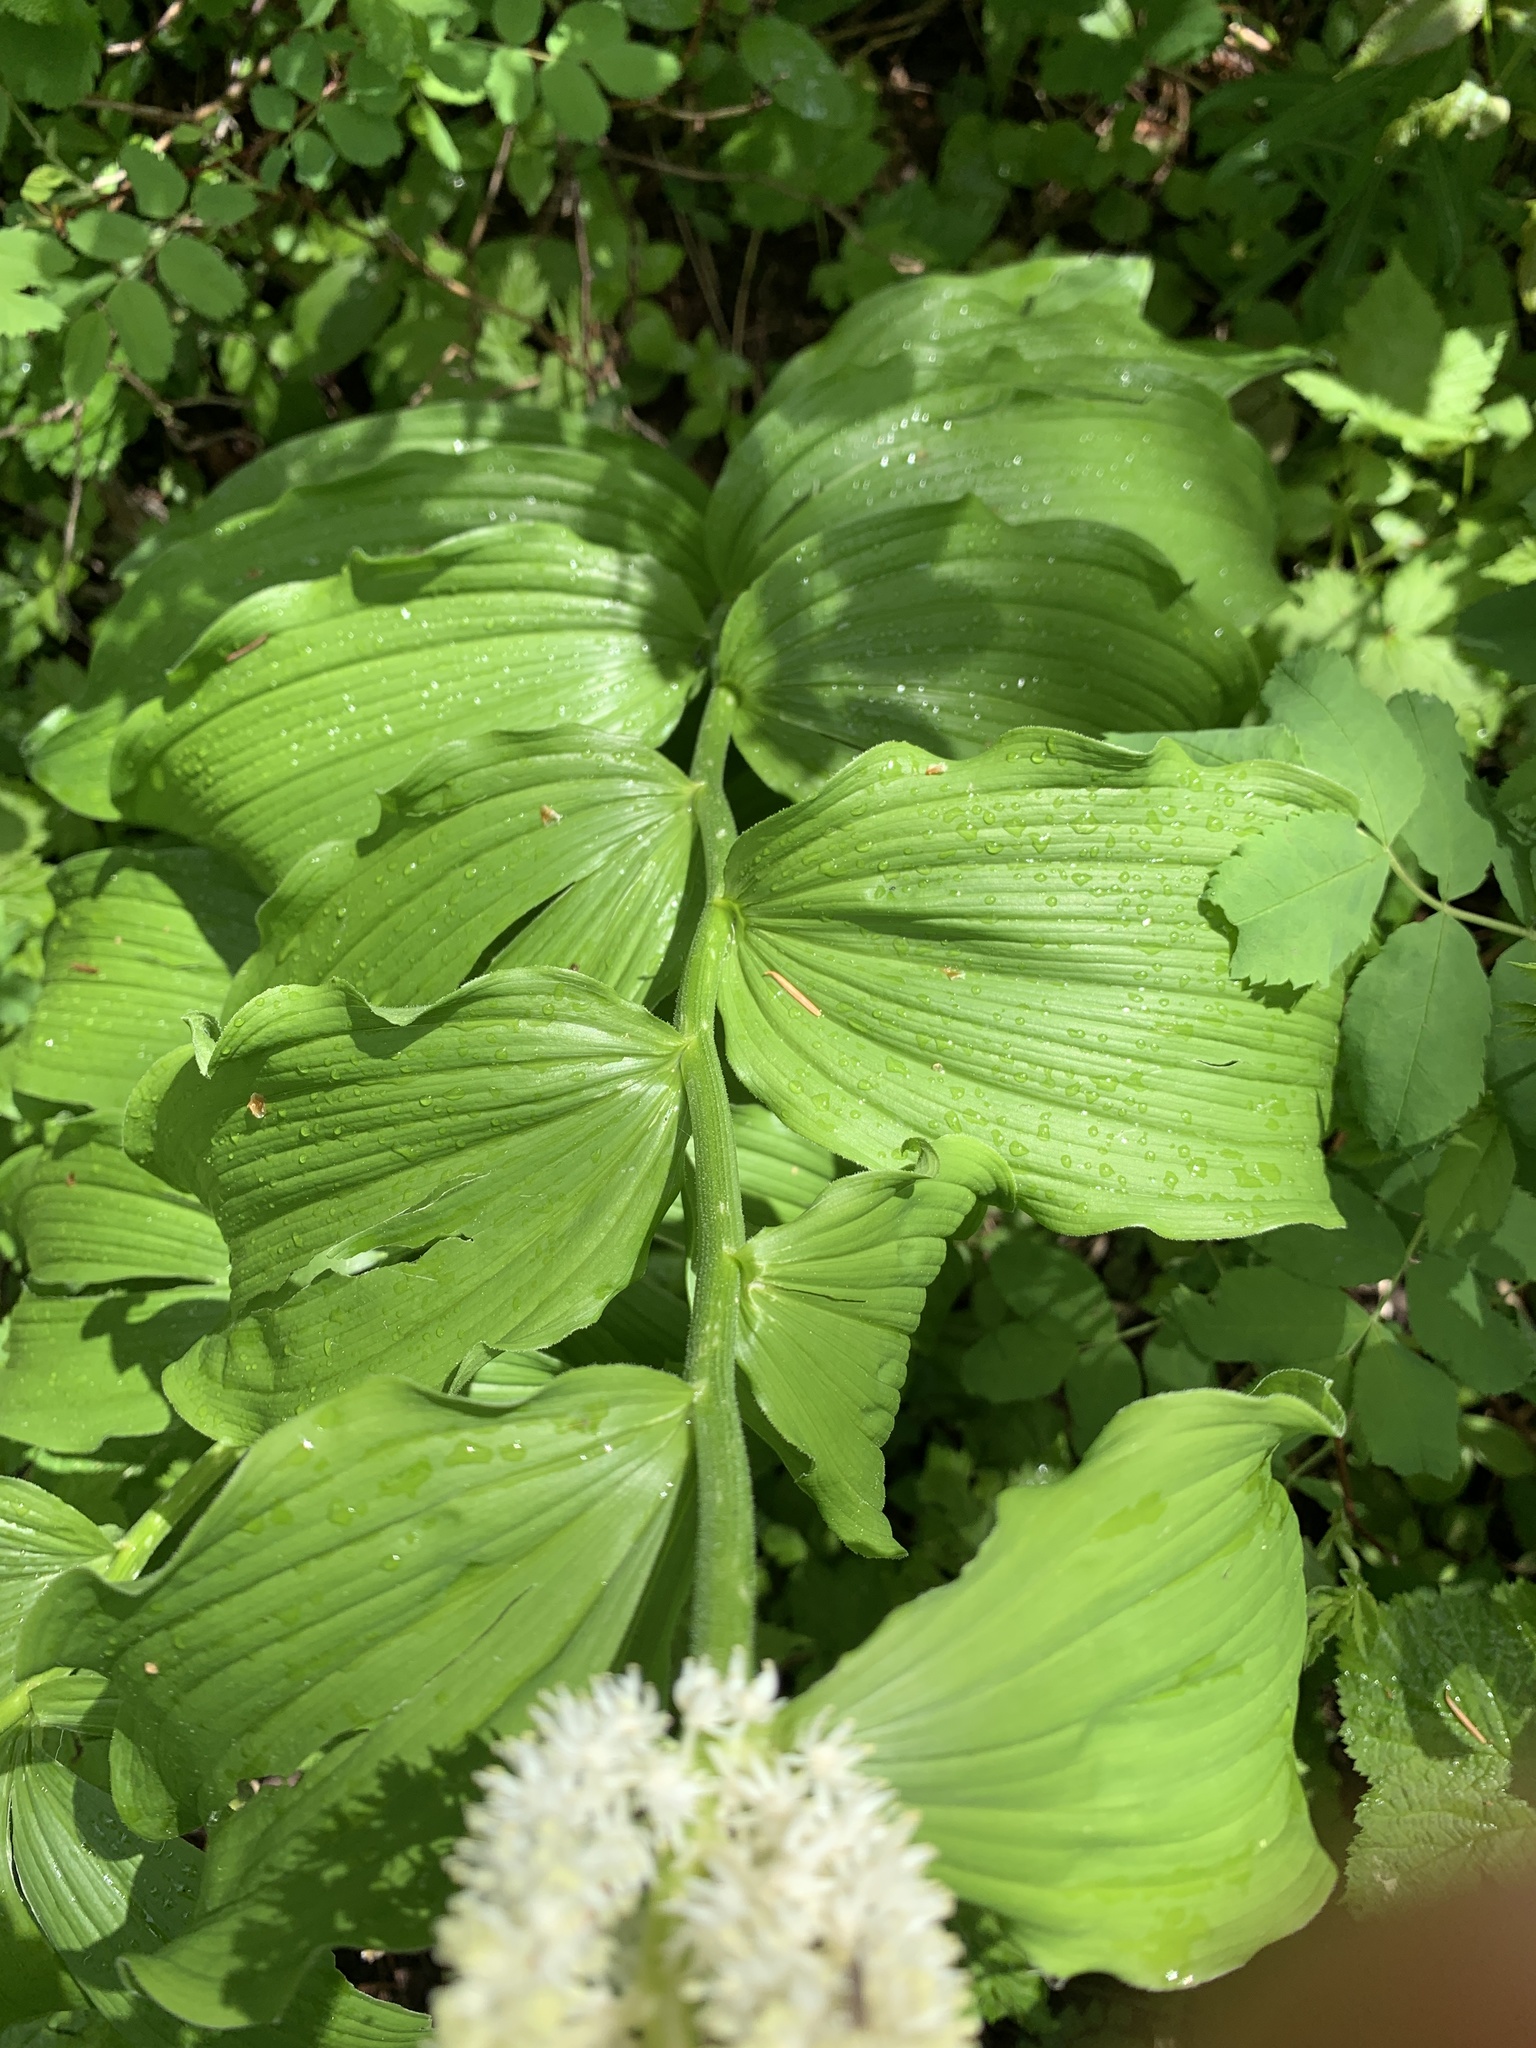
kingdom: Plantae
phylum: Tracheophyta
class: Liliopsida
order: Asparagales
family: Asparagaceae
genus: Maianthemum
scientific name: Maianthemum racemosum
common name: False spikenard
